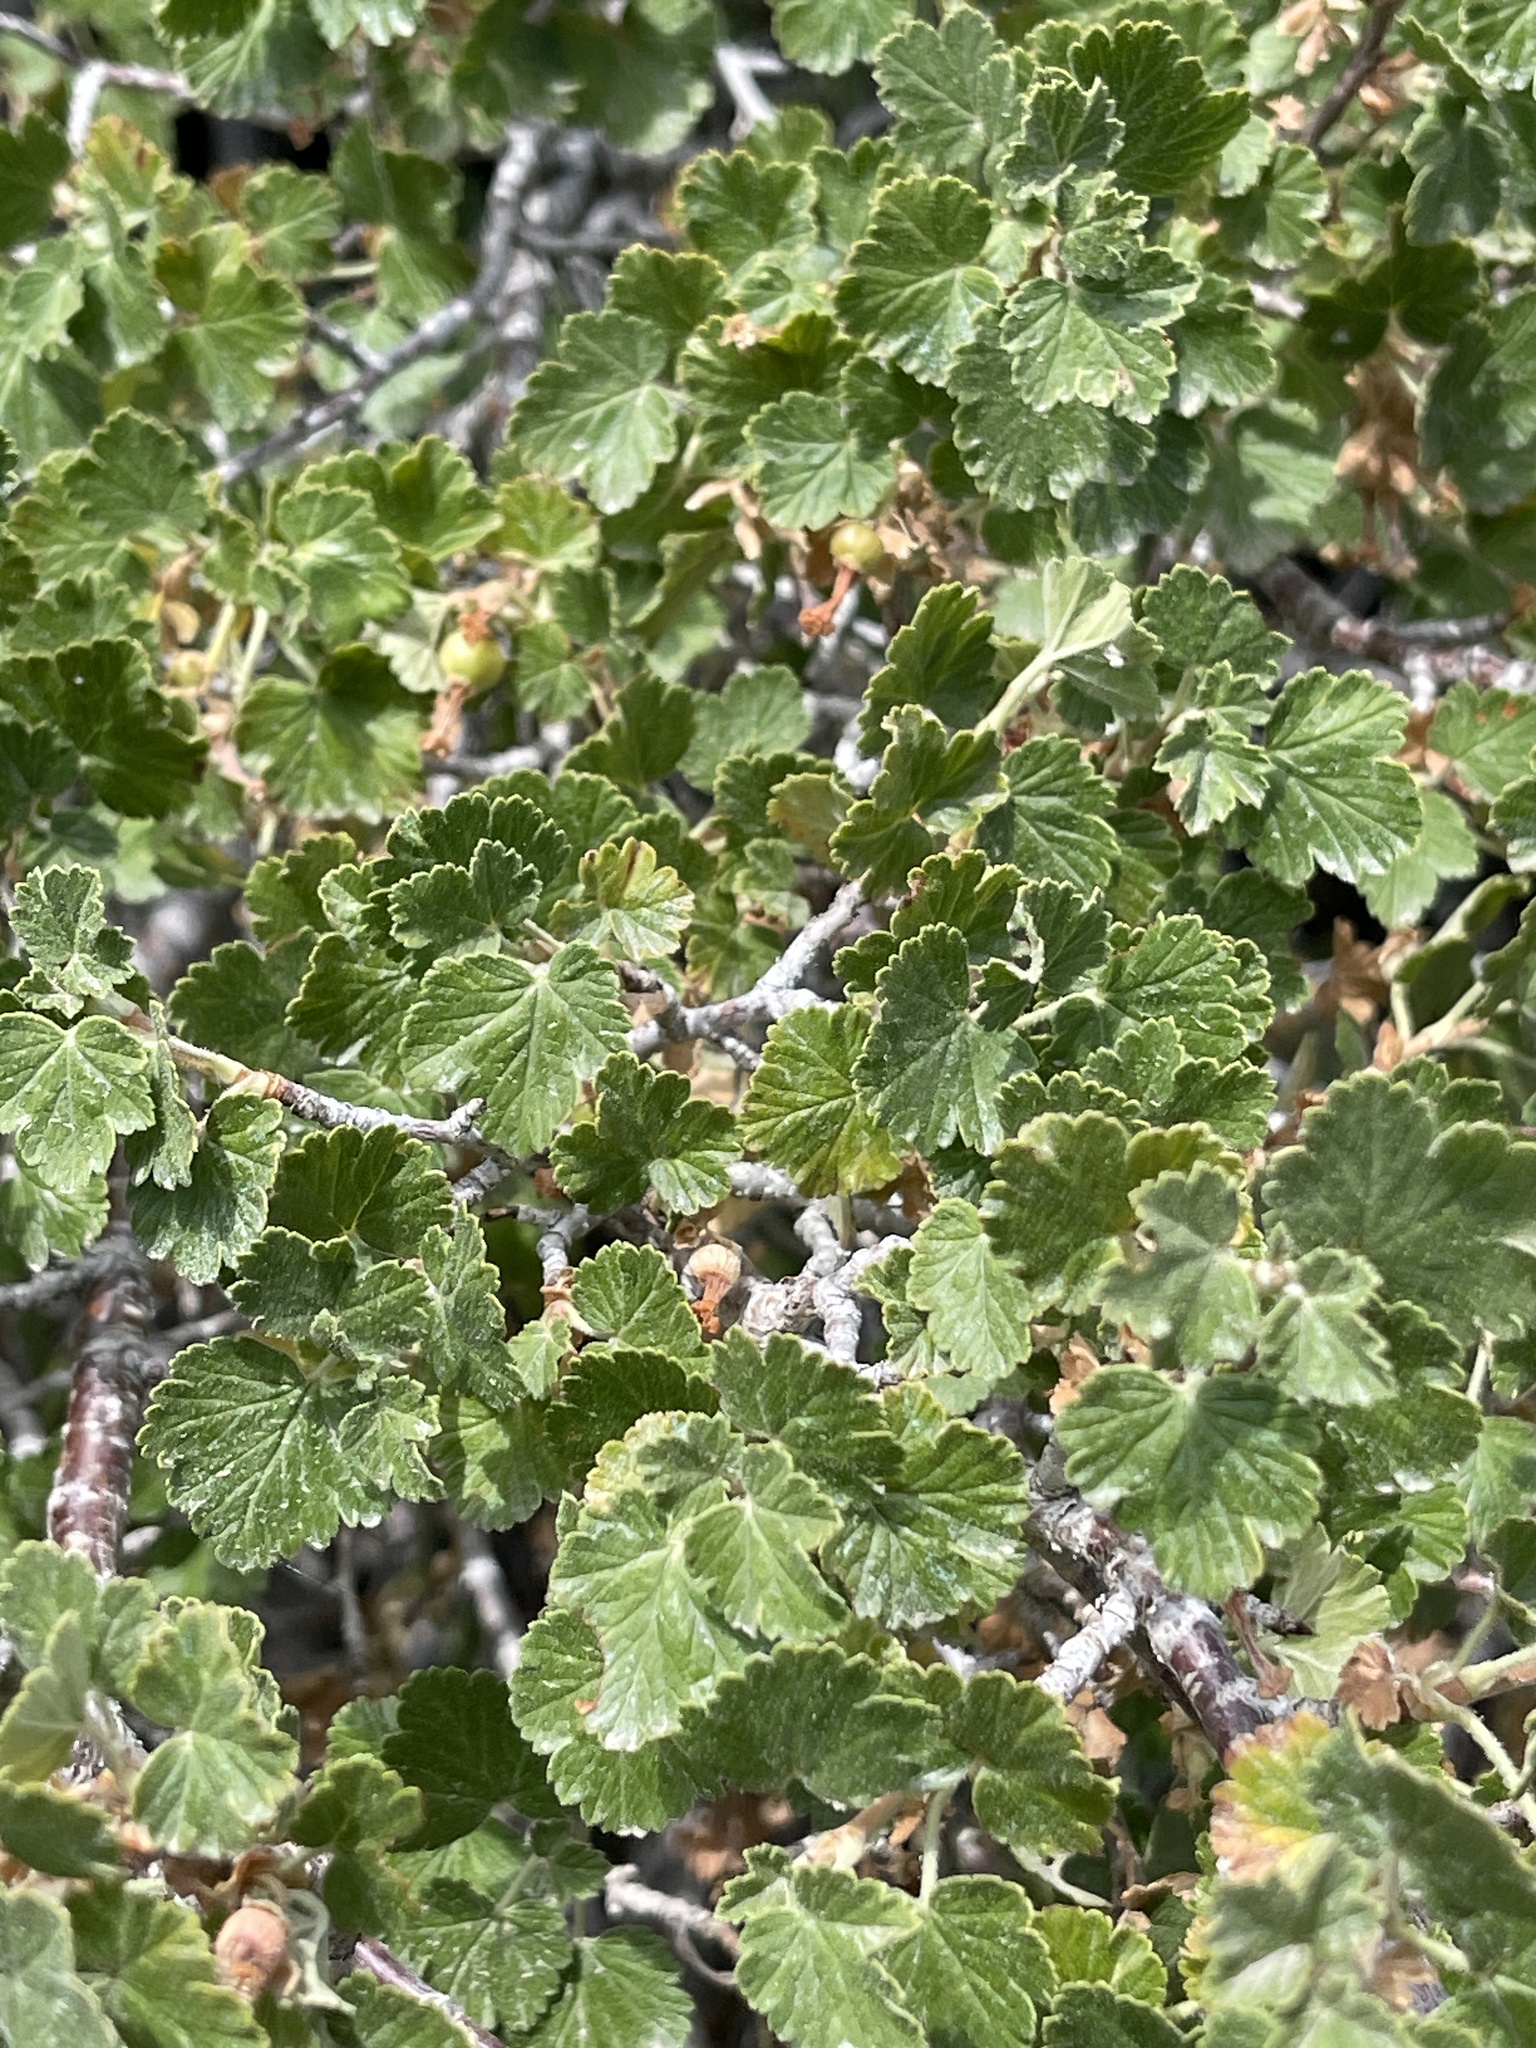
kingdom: Plantae
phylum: Tracheophyta
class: Magnoliopsida
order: Saxifragales
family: Grossulariaceae
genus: Ribes
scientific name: Ribes cereum
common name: Wax currant
